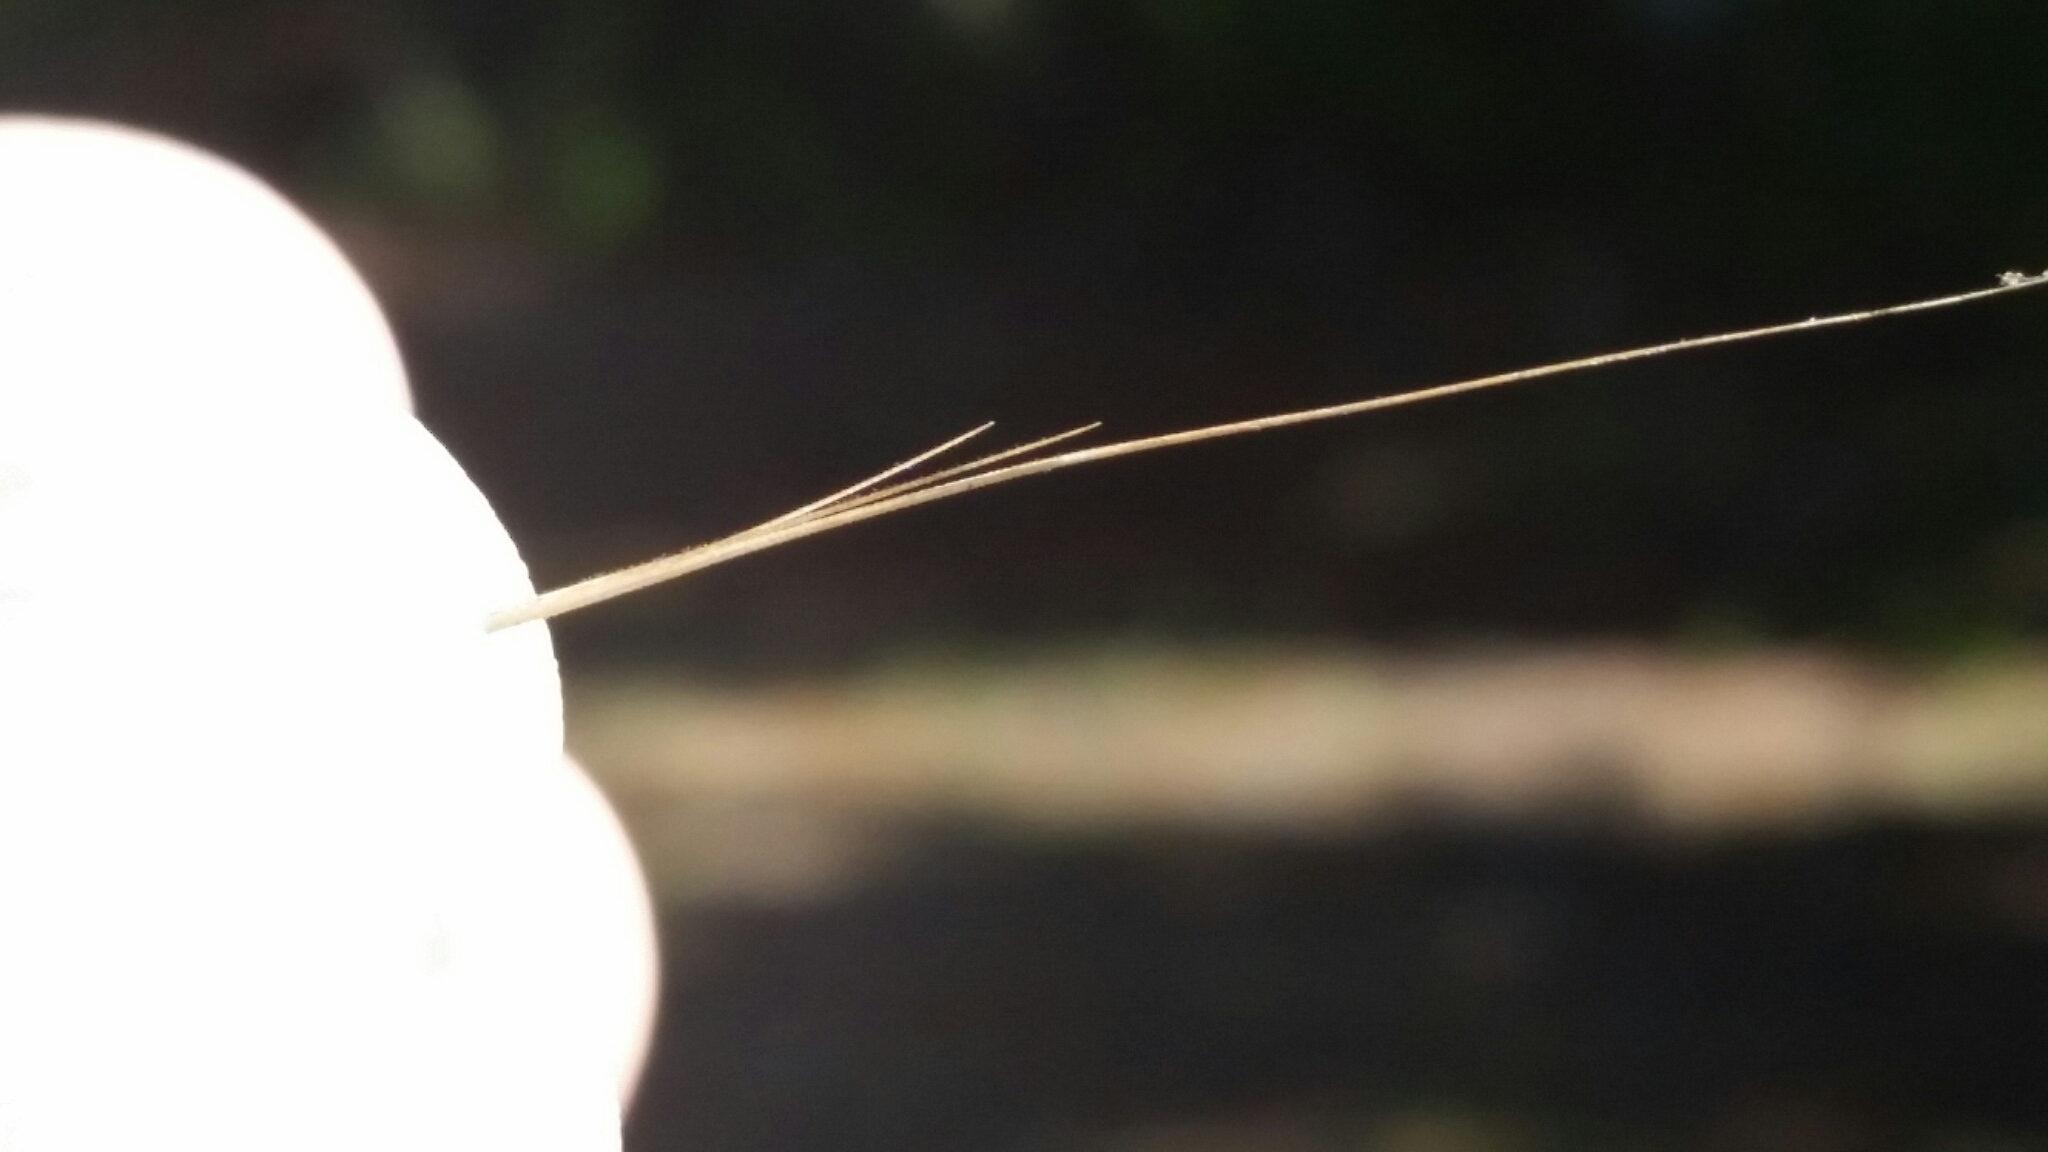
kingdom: Plantae
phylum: Tracheophyta
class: Liliopsida
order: Poales
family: Poaceae
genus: Aristida
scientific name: Aristida patula
